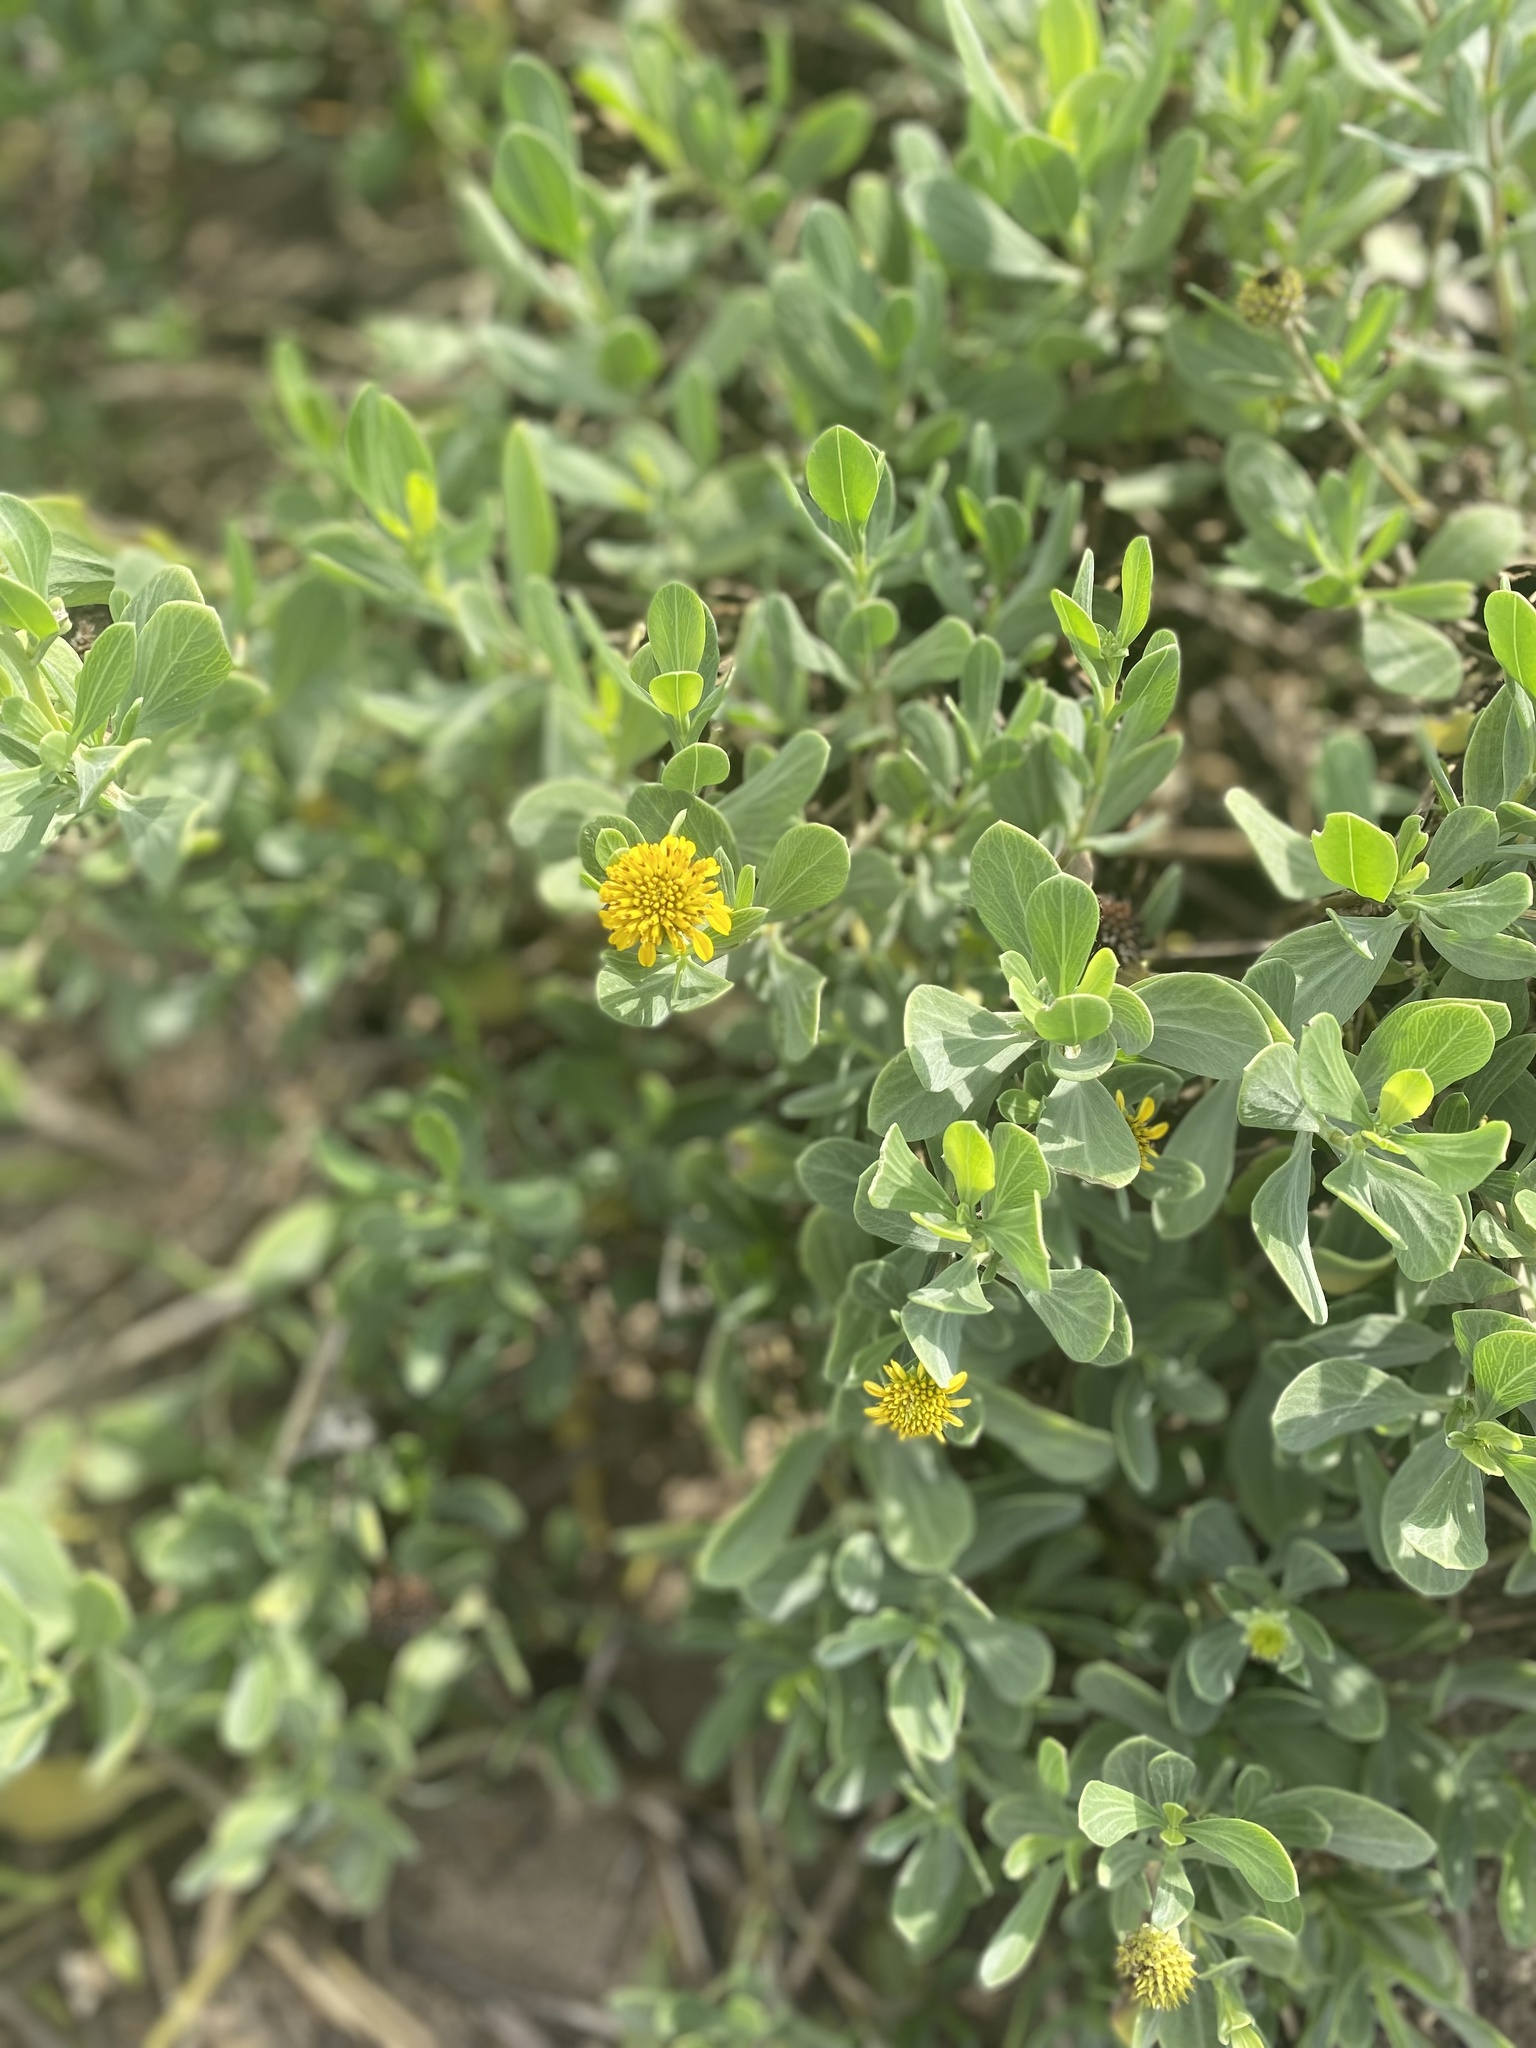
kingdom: Plantae
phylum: Tracheophyta
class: Magnoliopsida
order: Asterales
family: Asteraceae
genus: Borrichia
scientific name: Borrichia frutescens
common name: Sea oxeye
